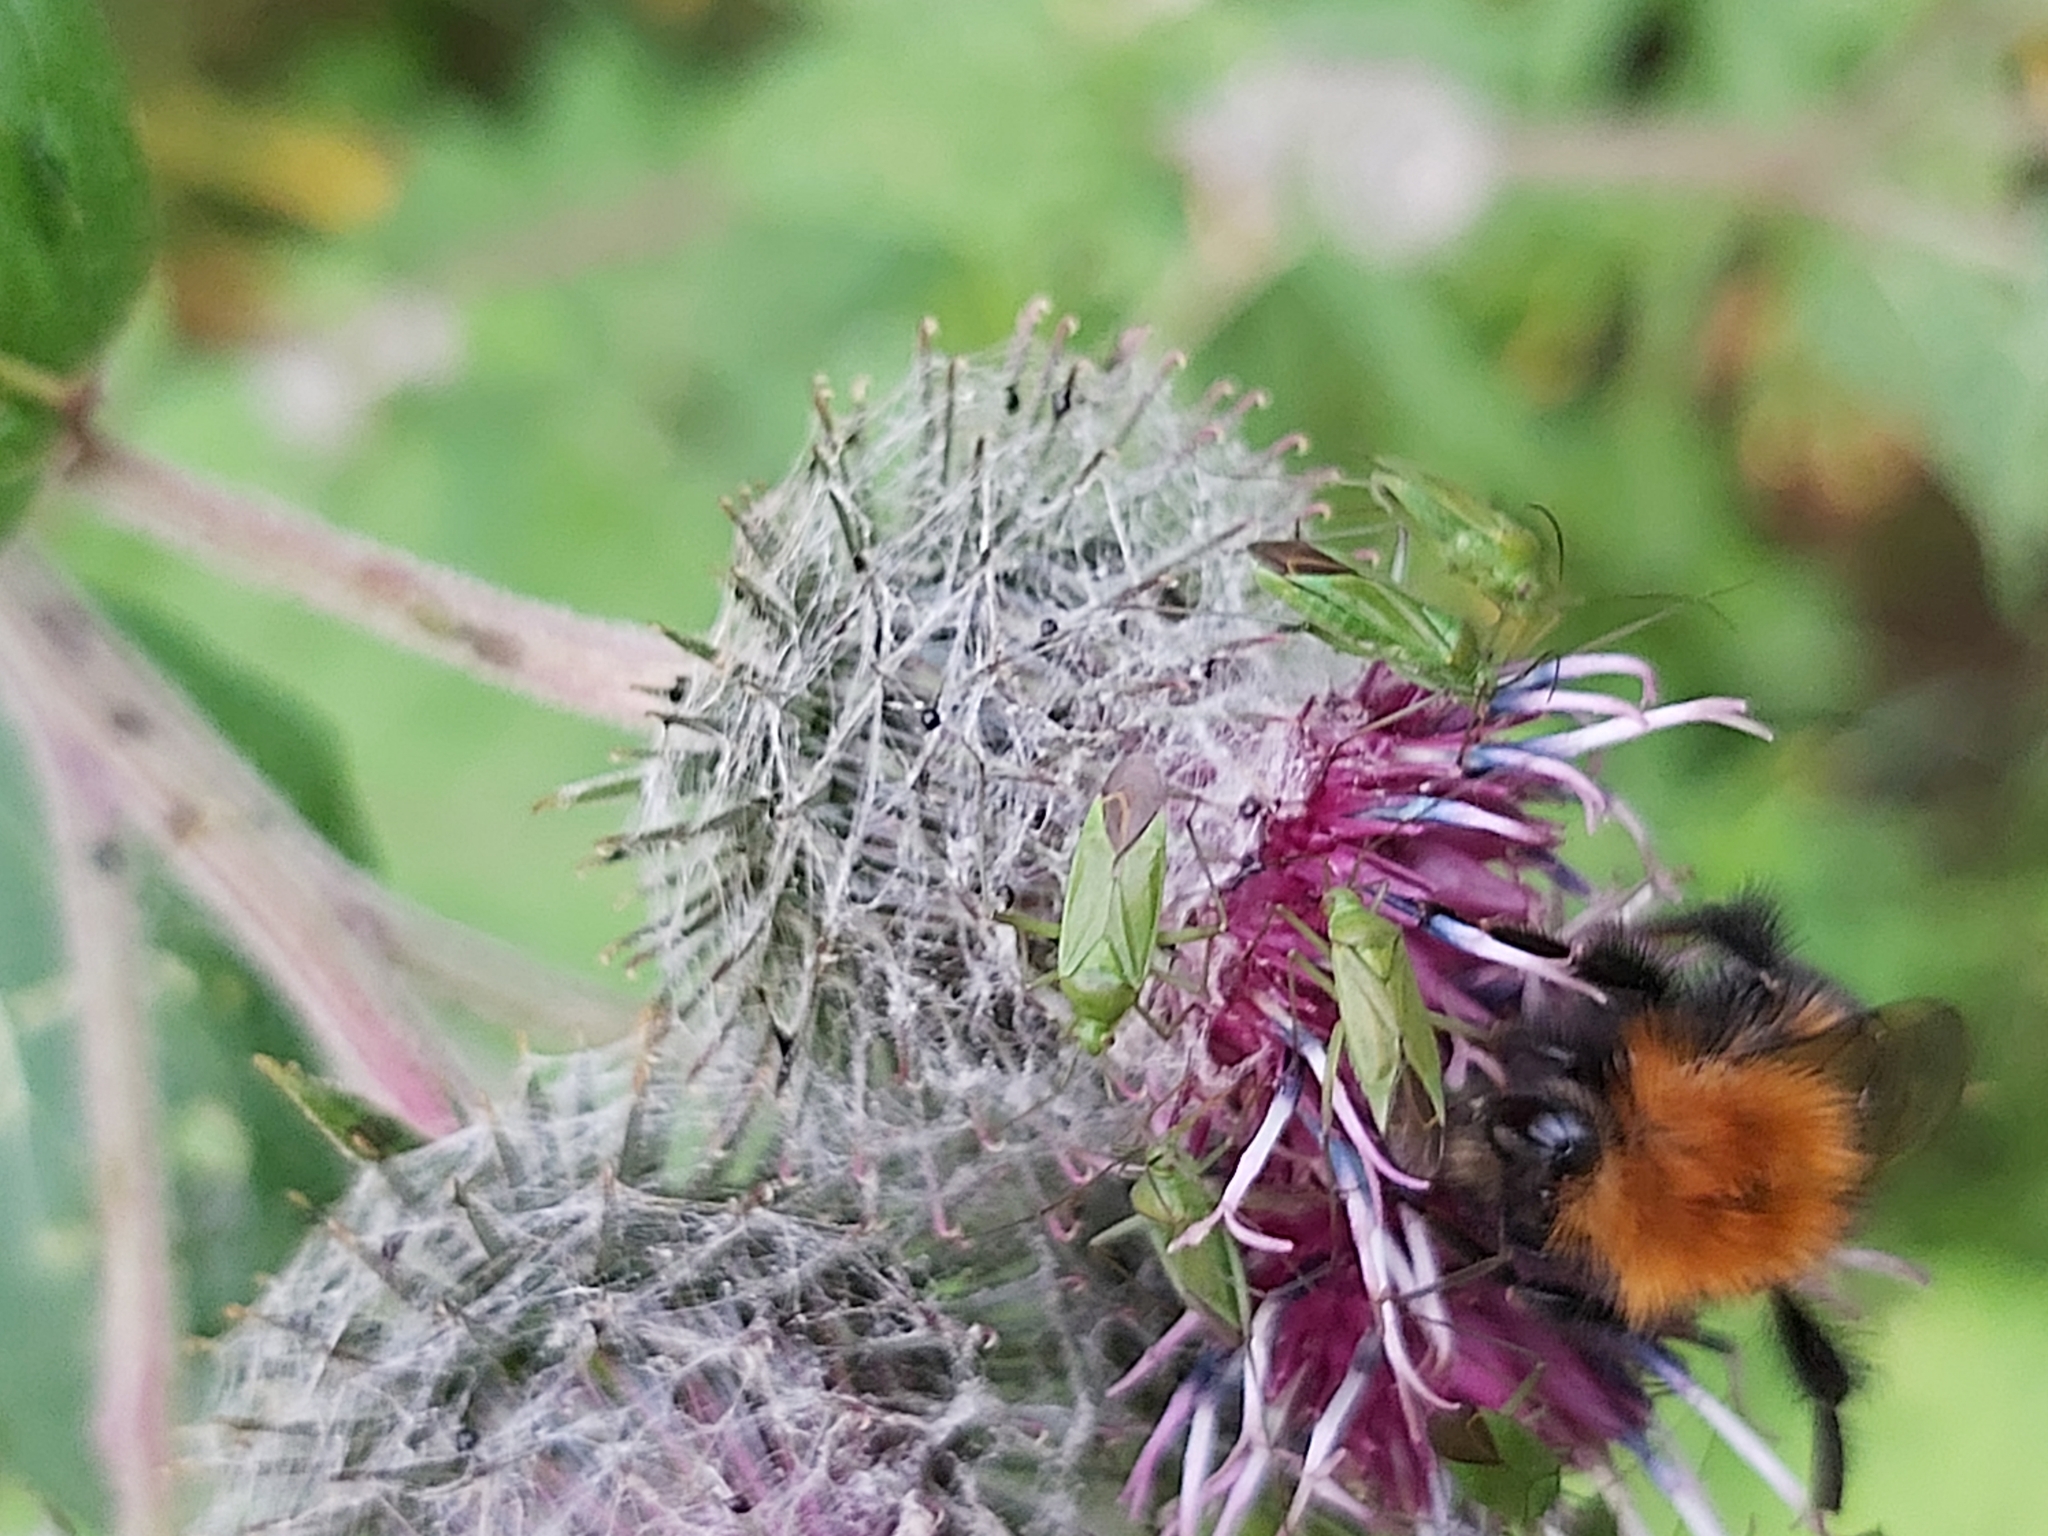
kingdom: Animalia
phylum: Arthropoda
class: Insecta
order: Hemiptera
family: Miridae
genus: Calocoris
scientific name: Calocoris affinis
